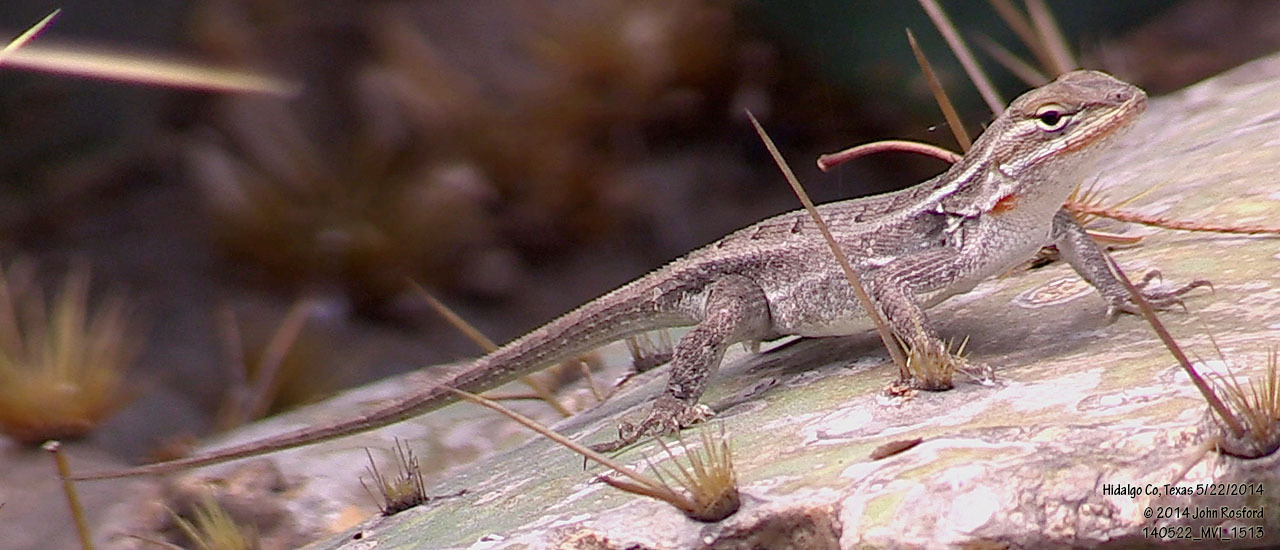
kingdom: Animalia
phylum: Chordata
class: Squamata
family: Phrynosomatidae
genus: Sceloporus
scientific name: Sceloporus variabilis
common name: Rosebelly lizard
